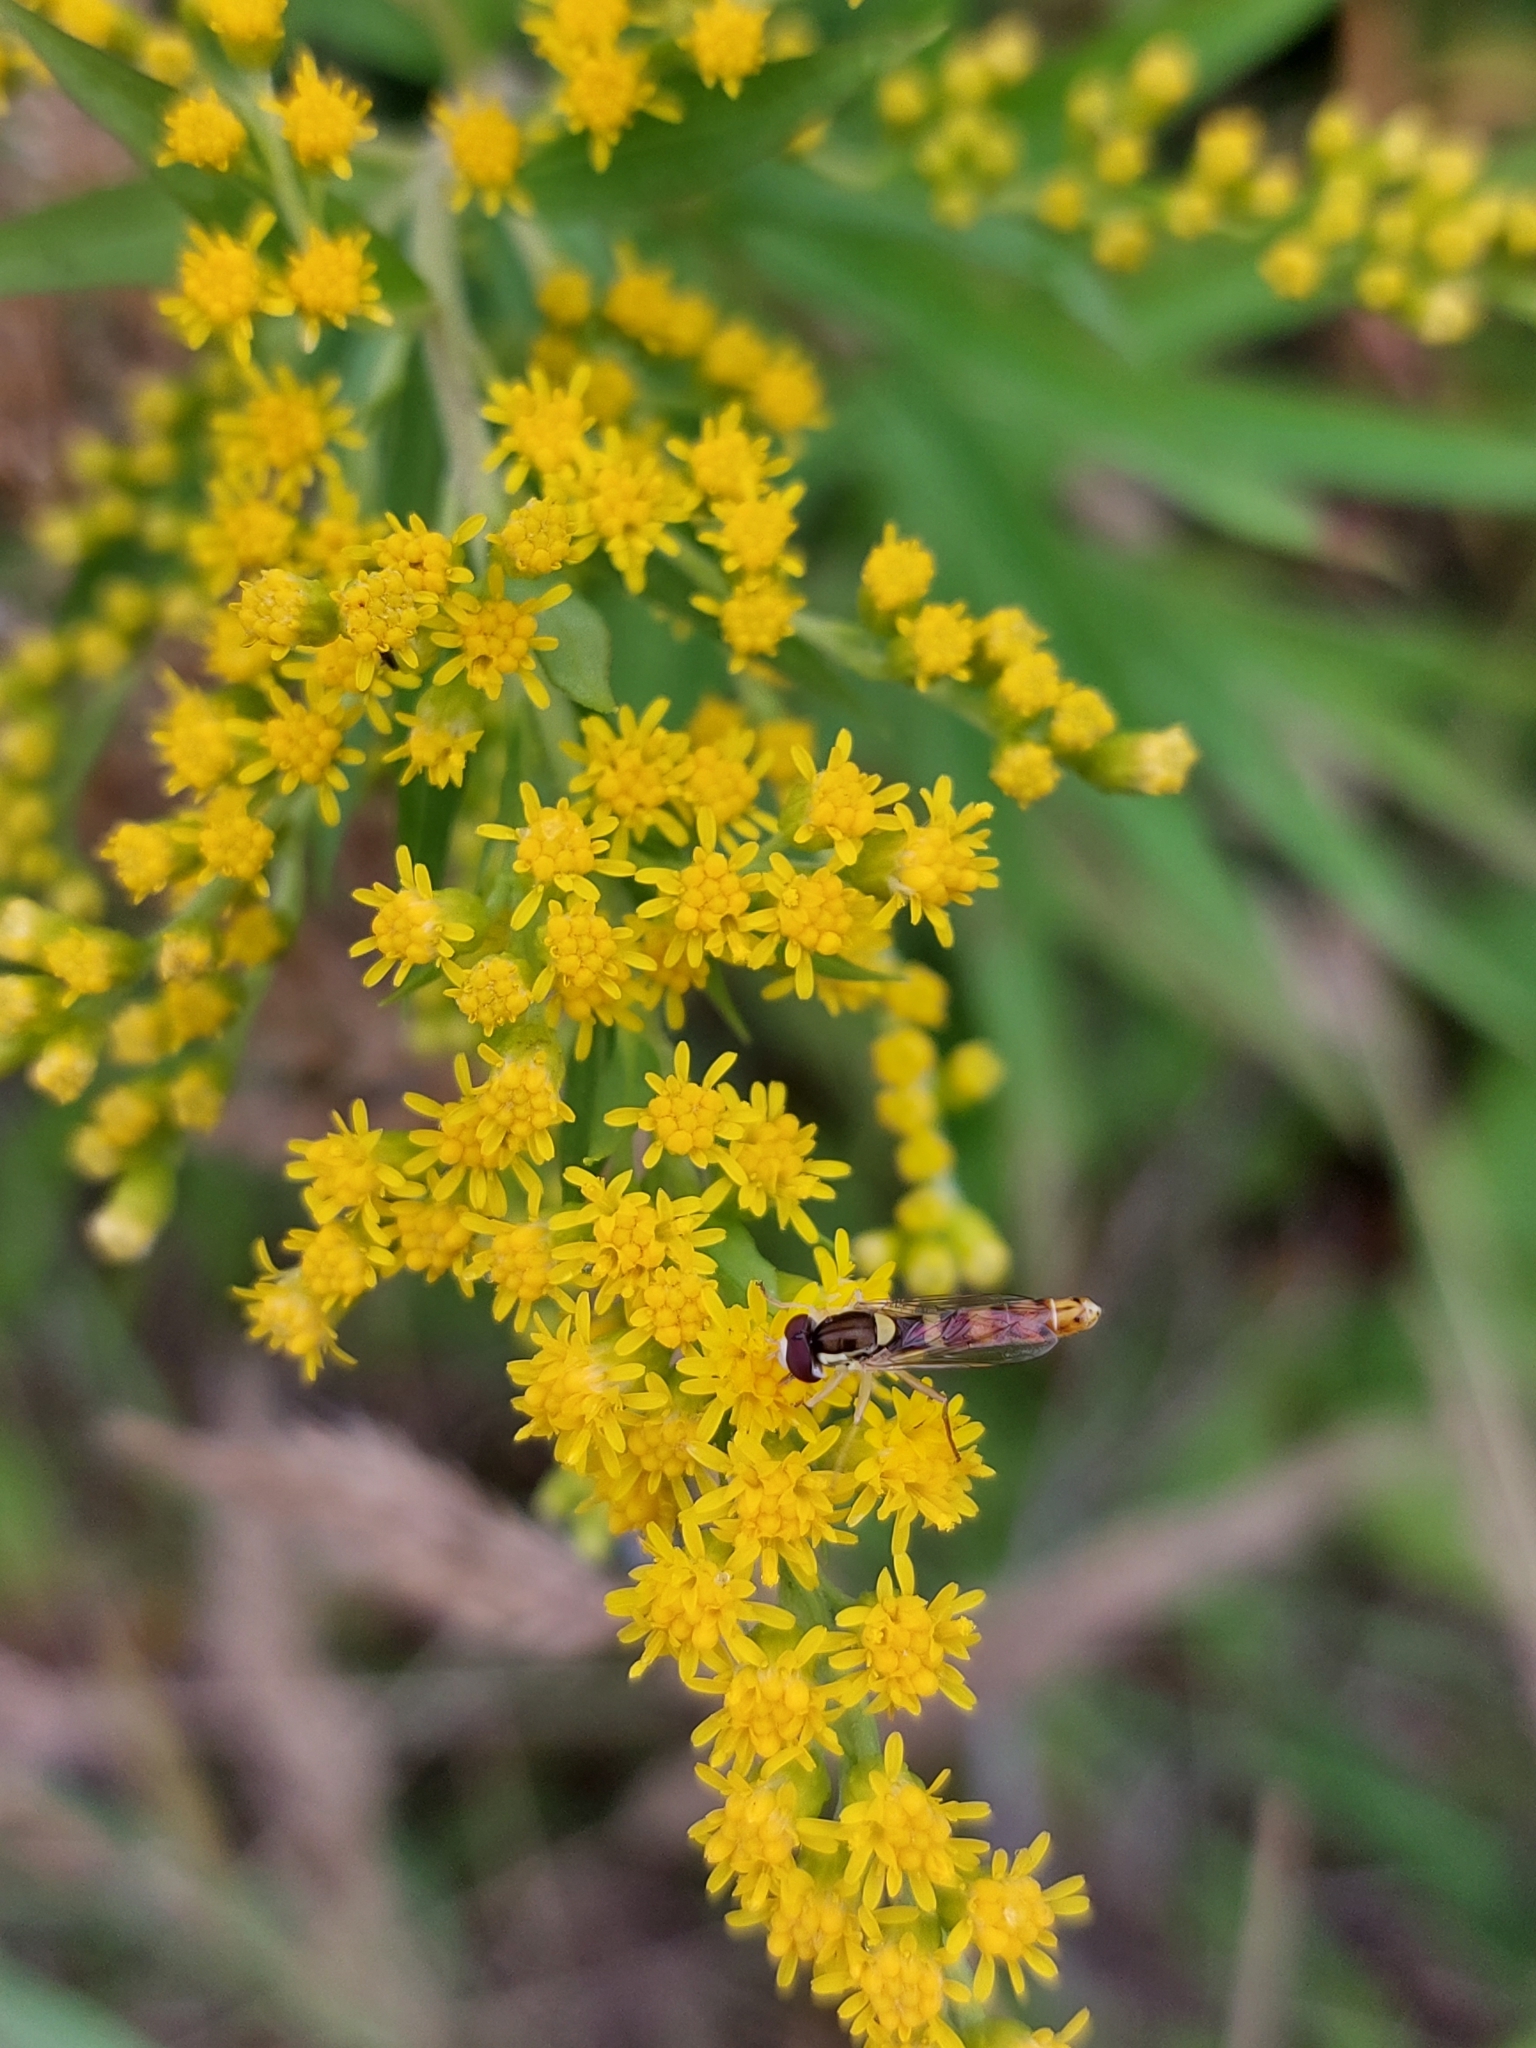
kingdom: Animalia
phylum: Arthropoda
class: Insecta
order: Diptera
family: Syrphidae
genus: Sphaerophoria
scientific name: Sphaerophoria scripta
